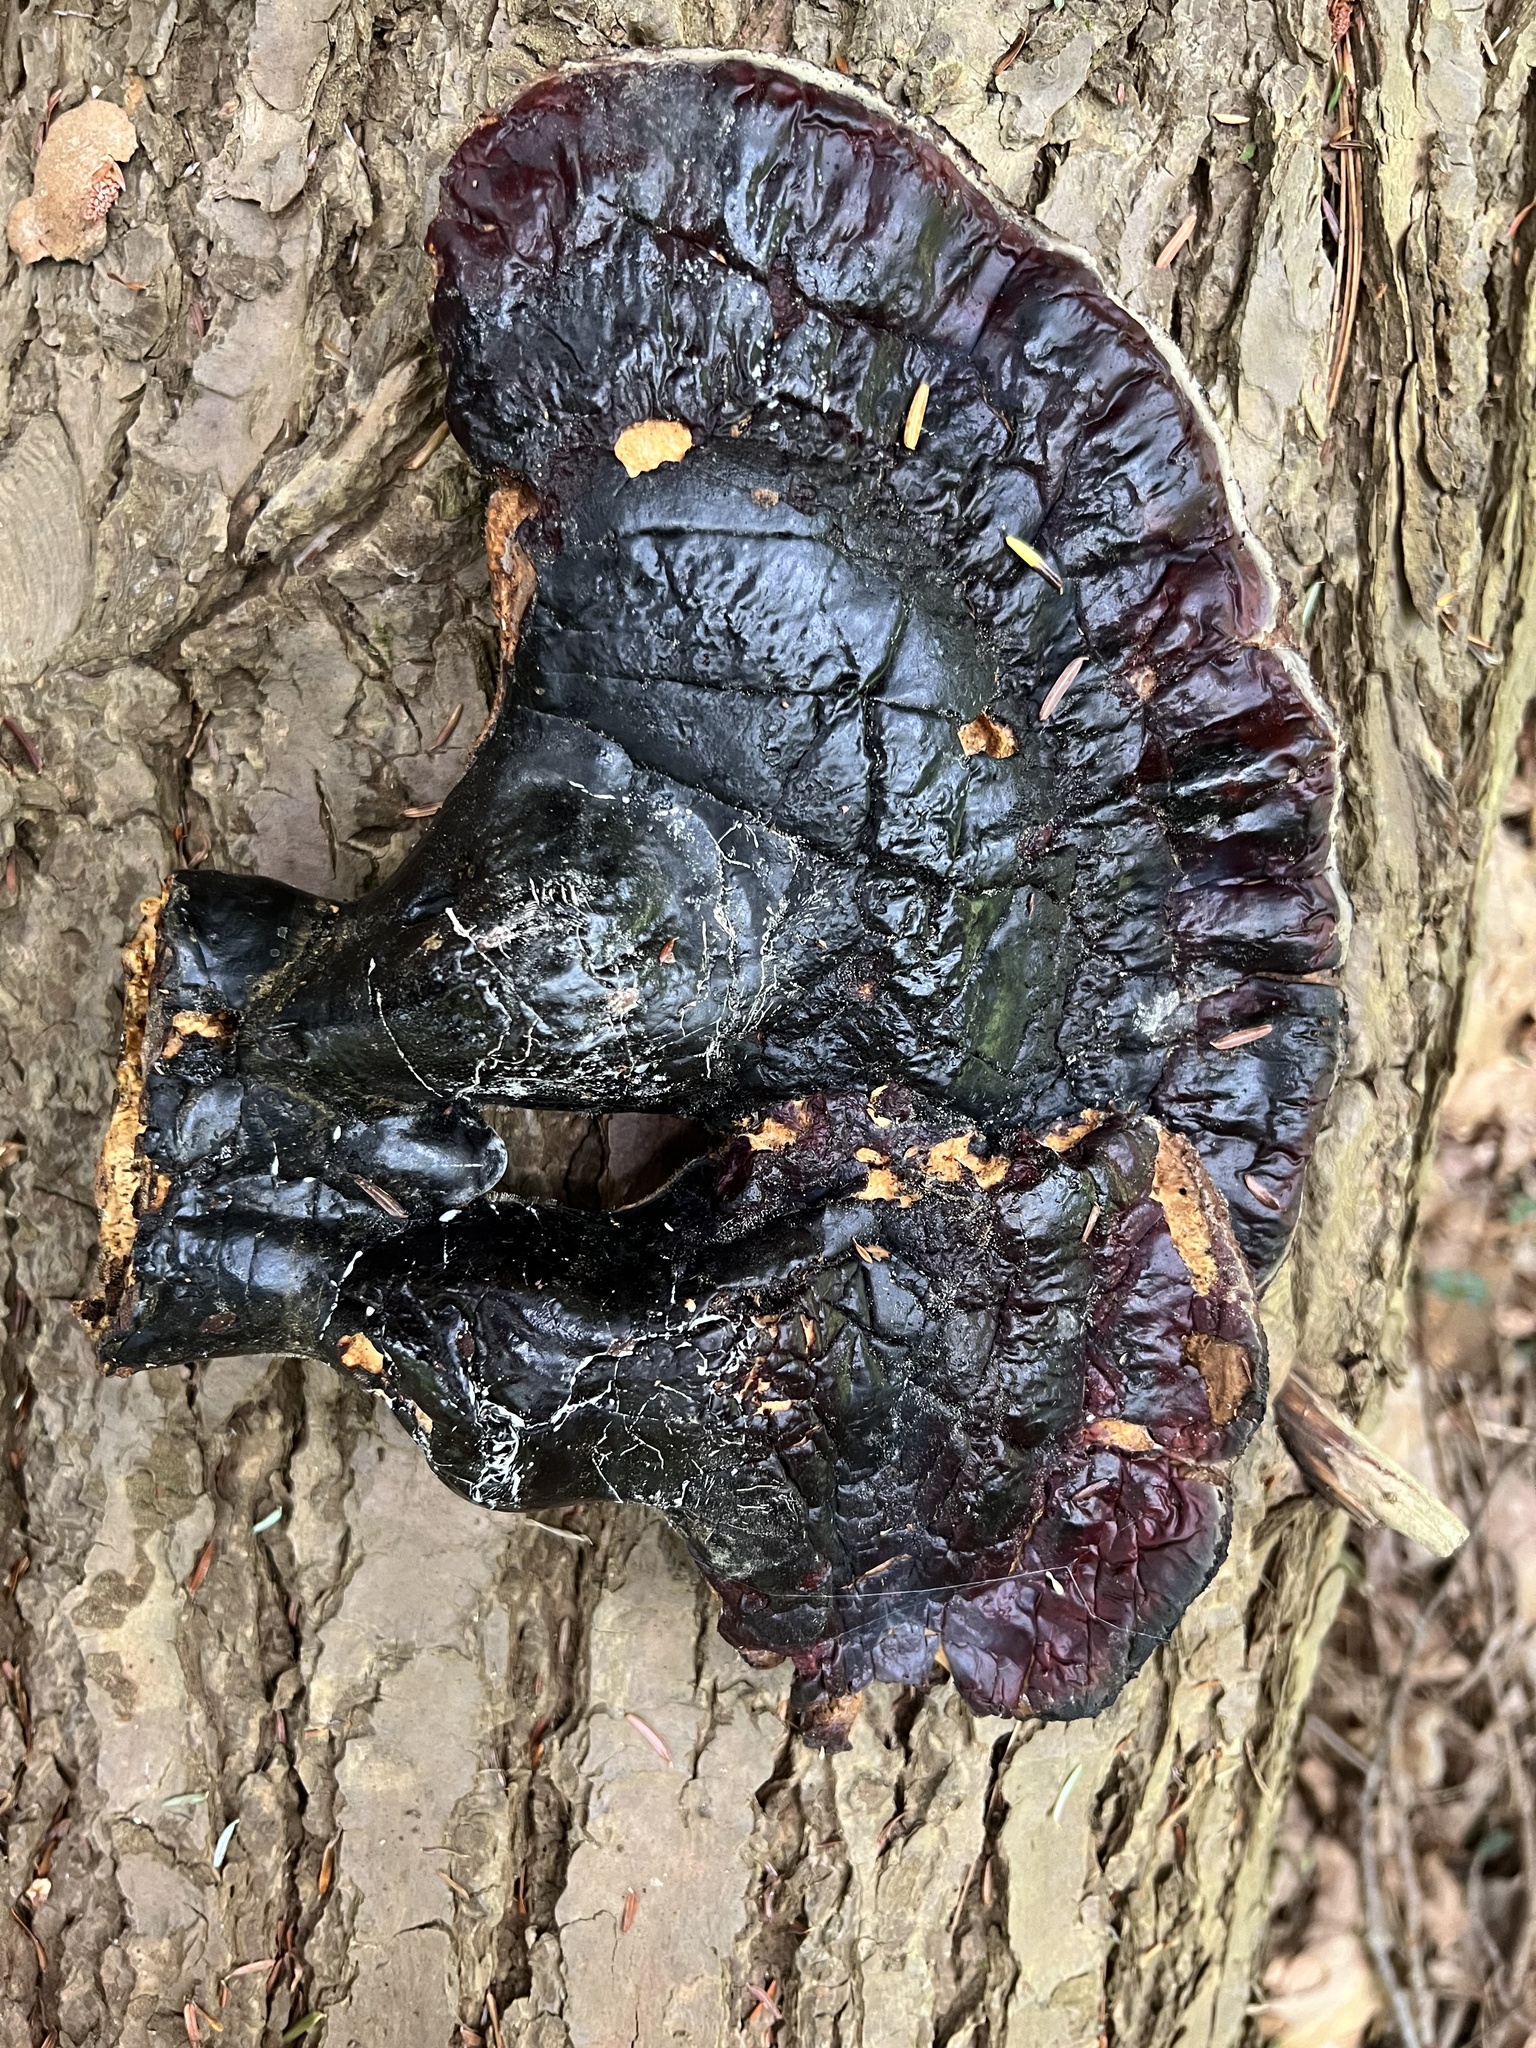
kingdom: Fungi
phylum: Basidiomycota
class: Agaricomycetes
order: Polyporales
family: Polyporaceae
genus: Ganoderma
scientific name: Ganoderma tsugae
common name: Hemlock varnish shelf
